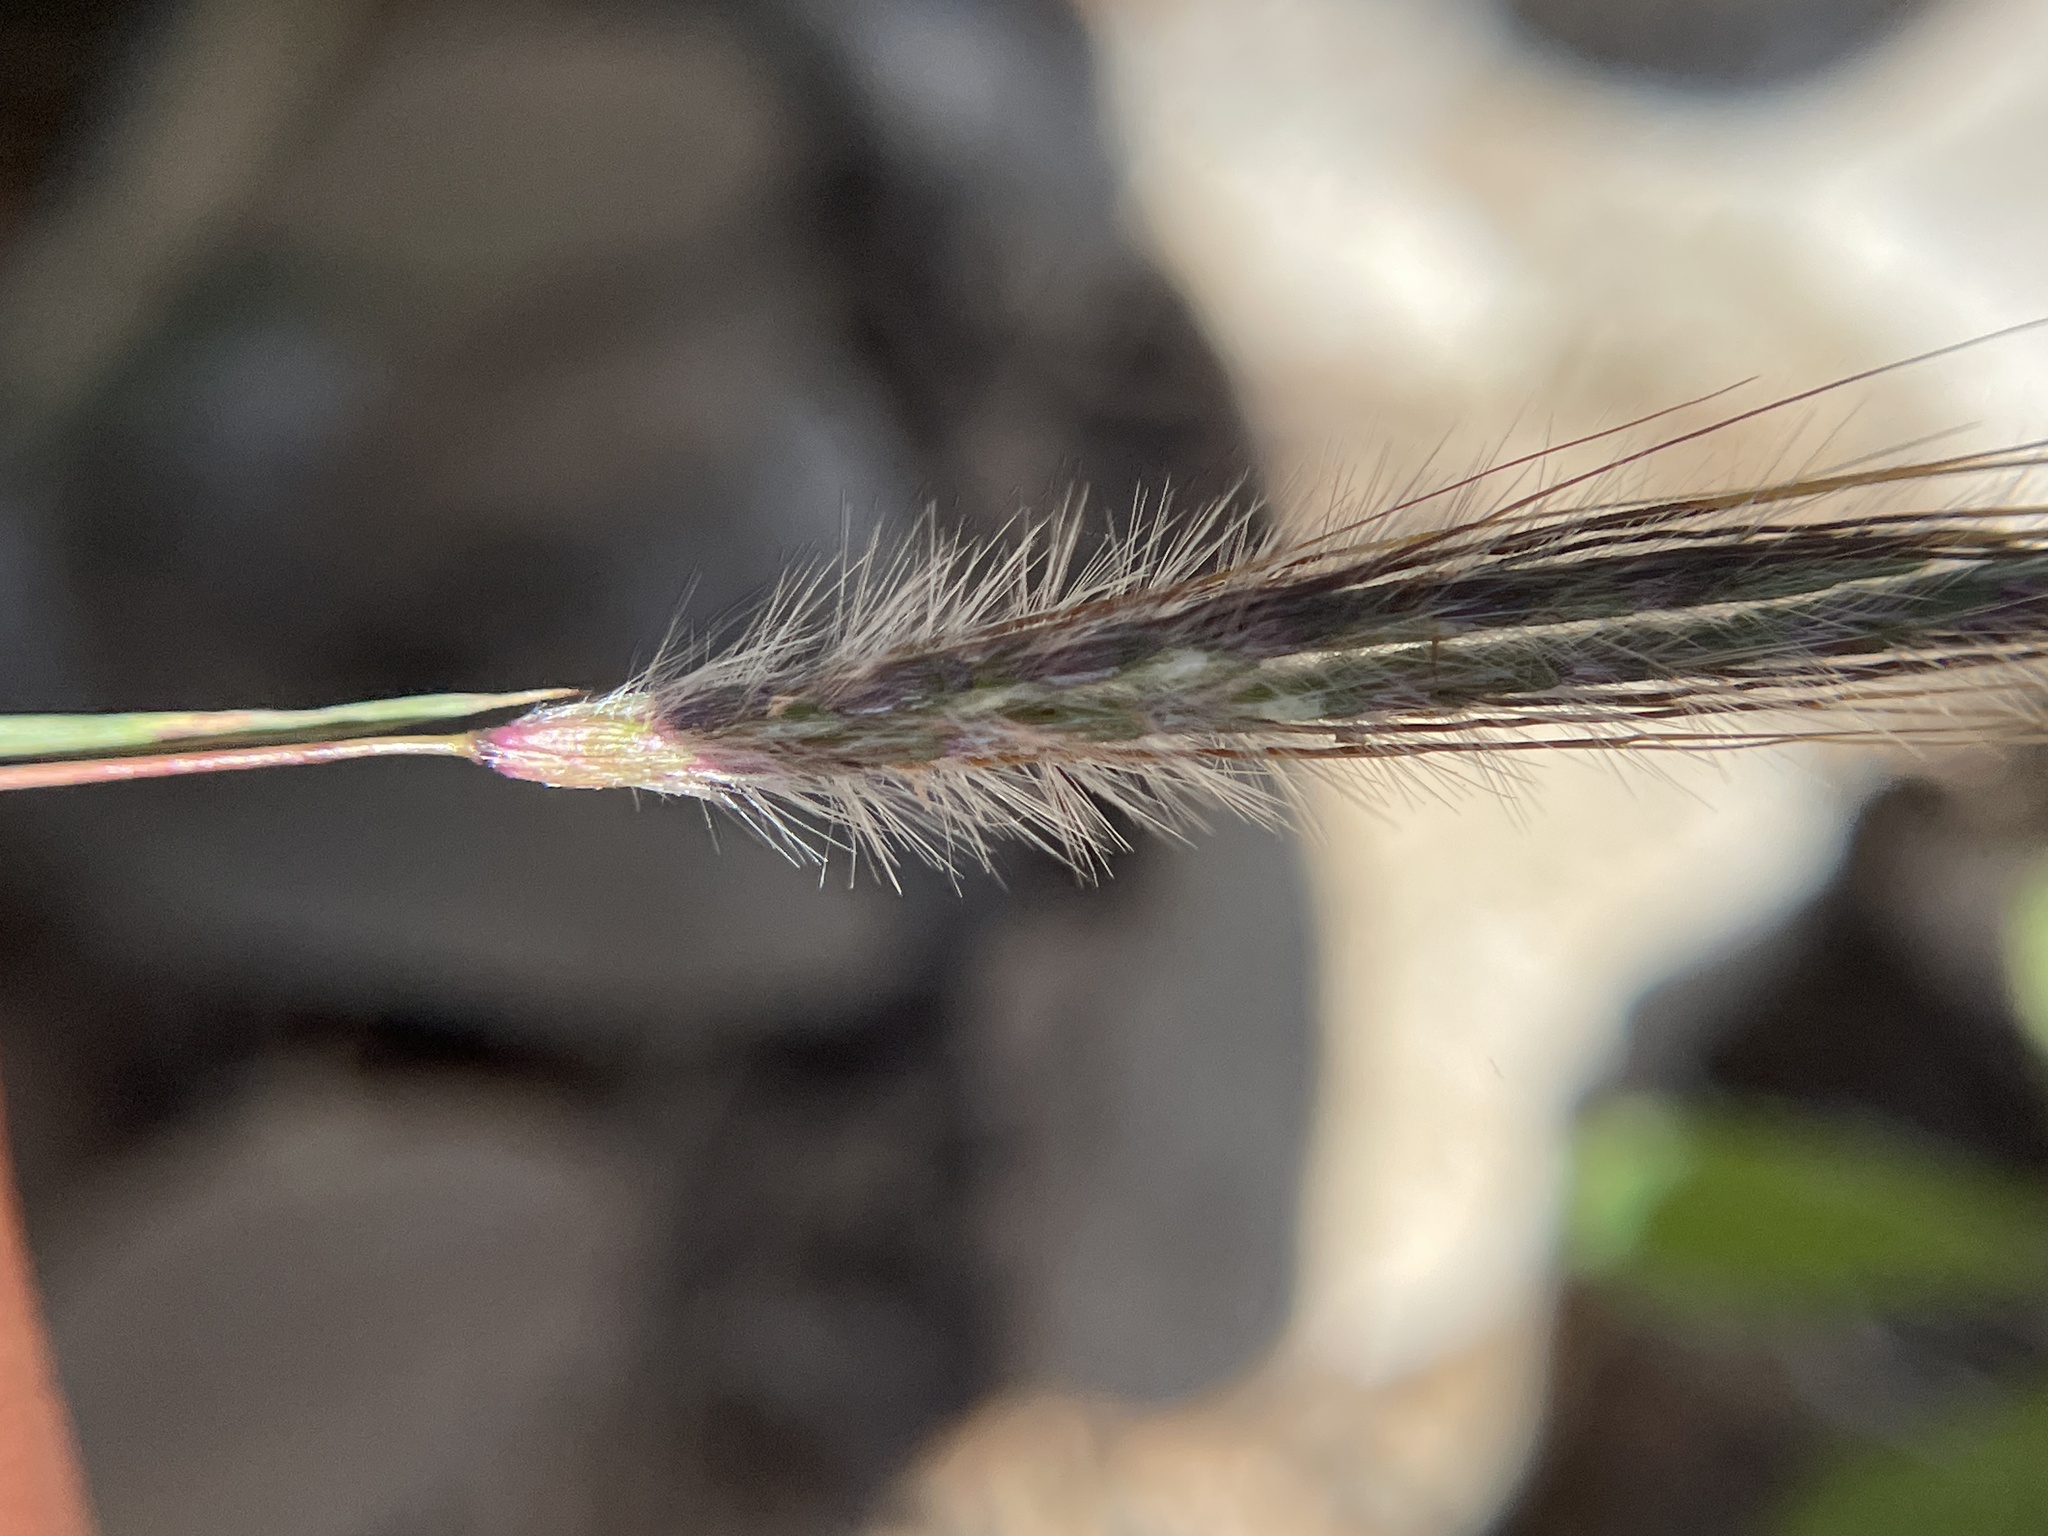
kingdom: Plantae
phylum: Tracheophyta
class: Liliopsida
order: Poales
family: Poaceae
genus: Dichanthium
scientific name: Dichanthium sericeum
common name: Silky bluestem
